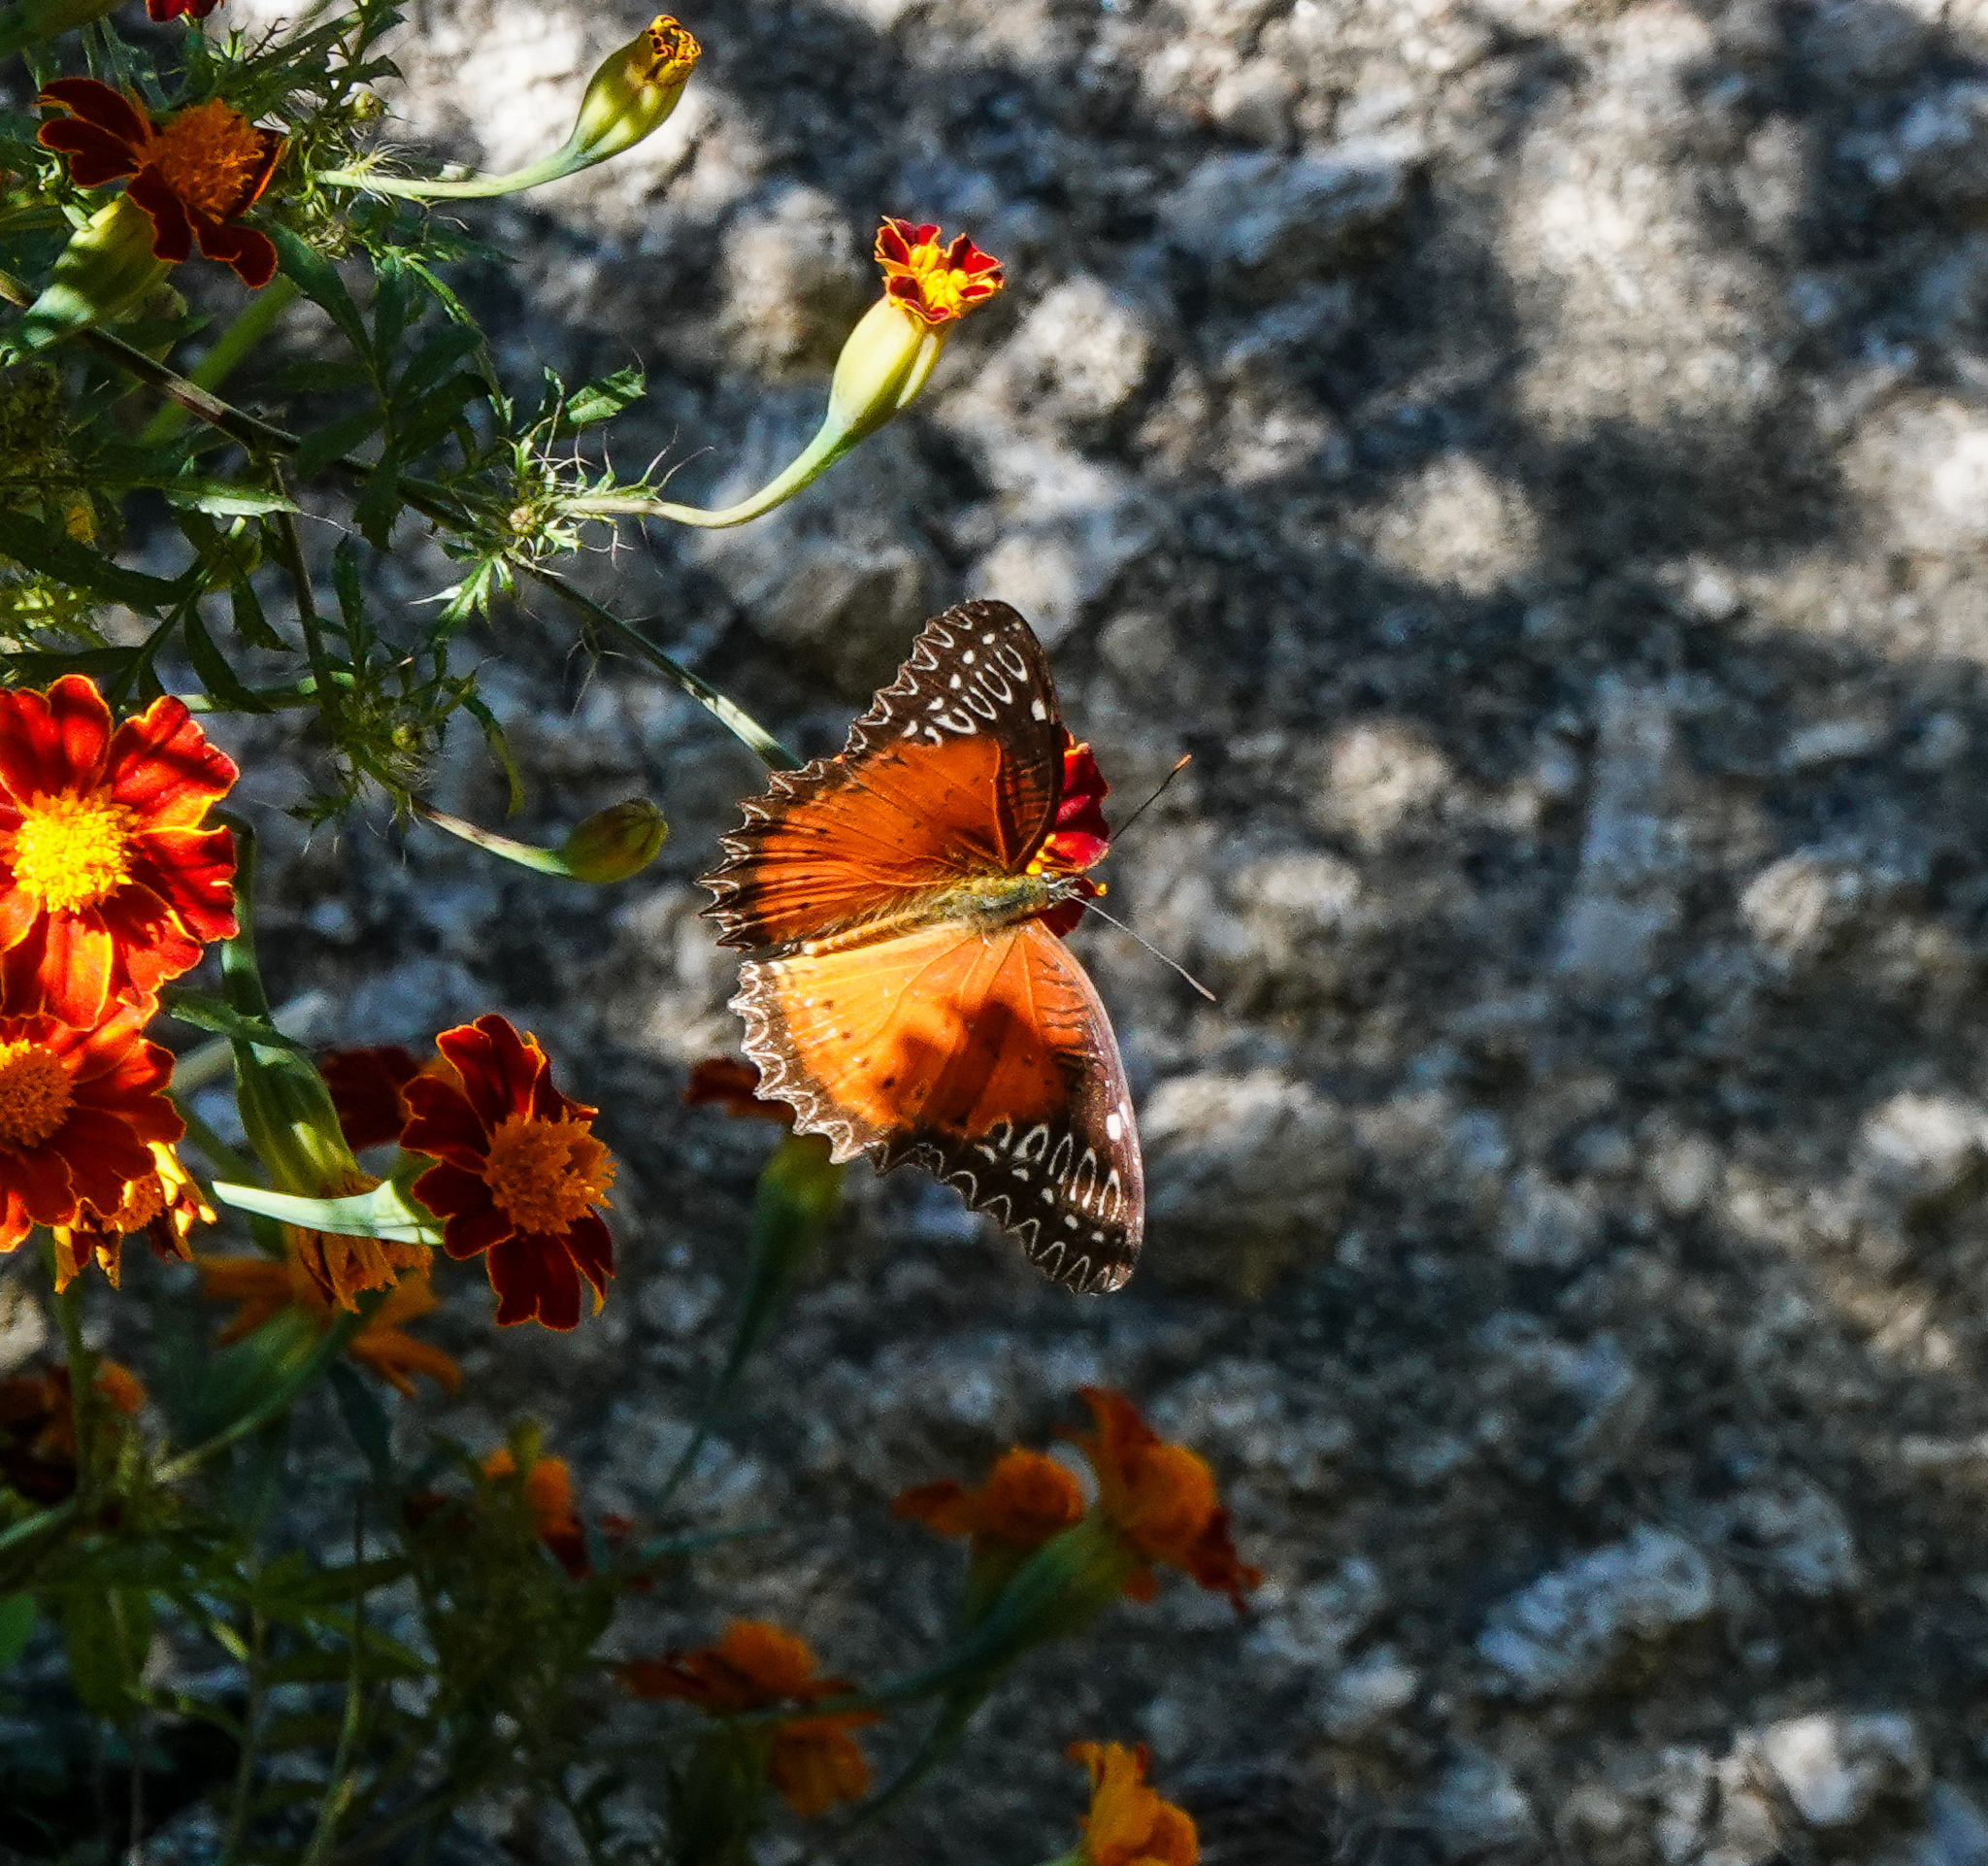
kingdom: Animalia
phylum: Arthropoda
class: Insecta
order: Lepidoptera
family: Nymphalidae
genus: Cethosia
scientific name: Cethosia biblis
